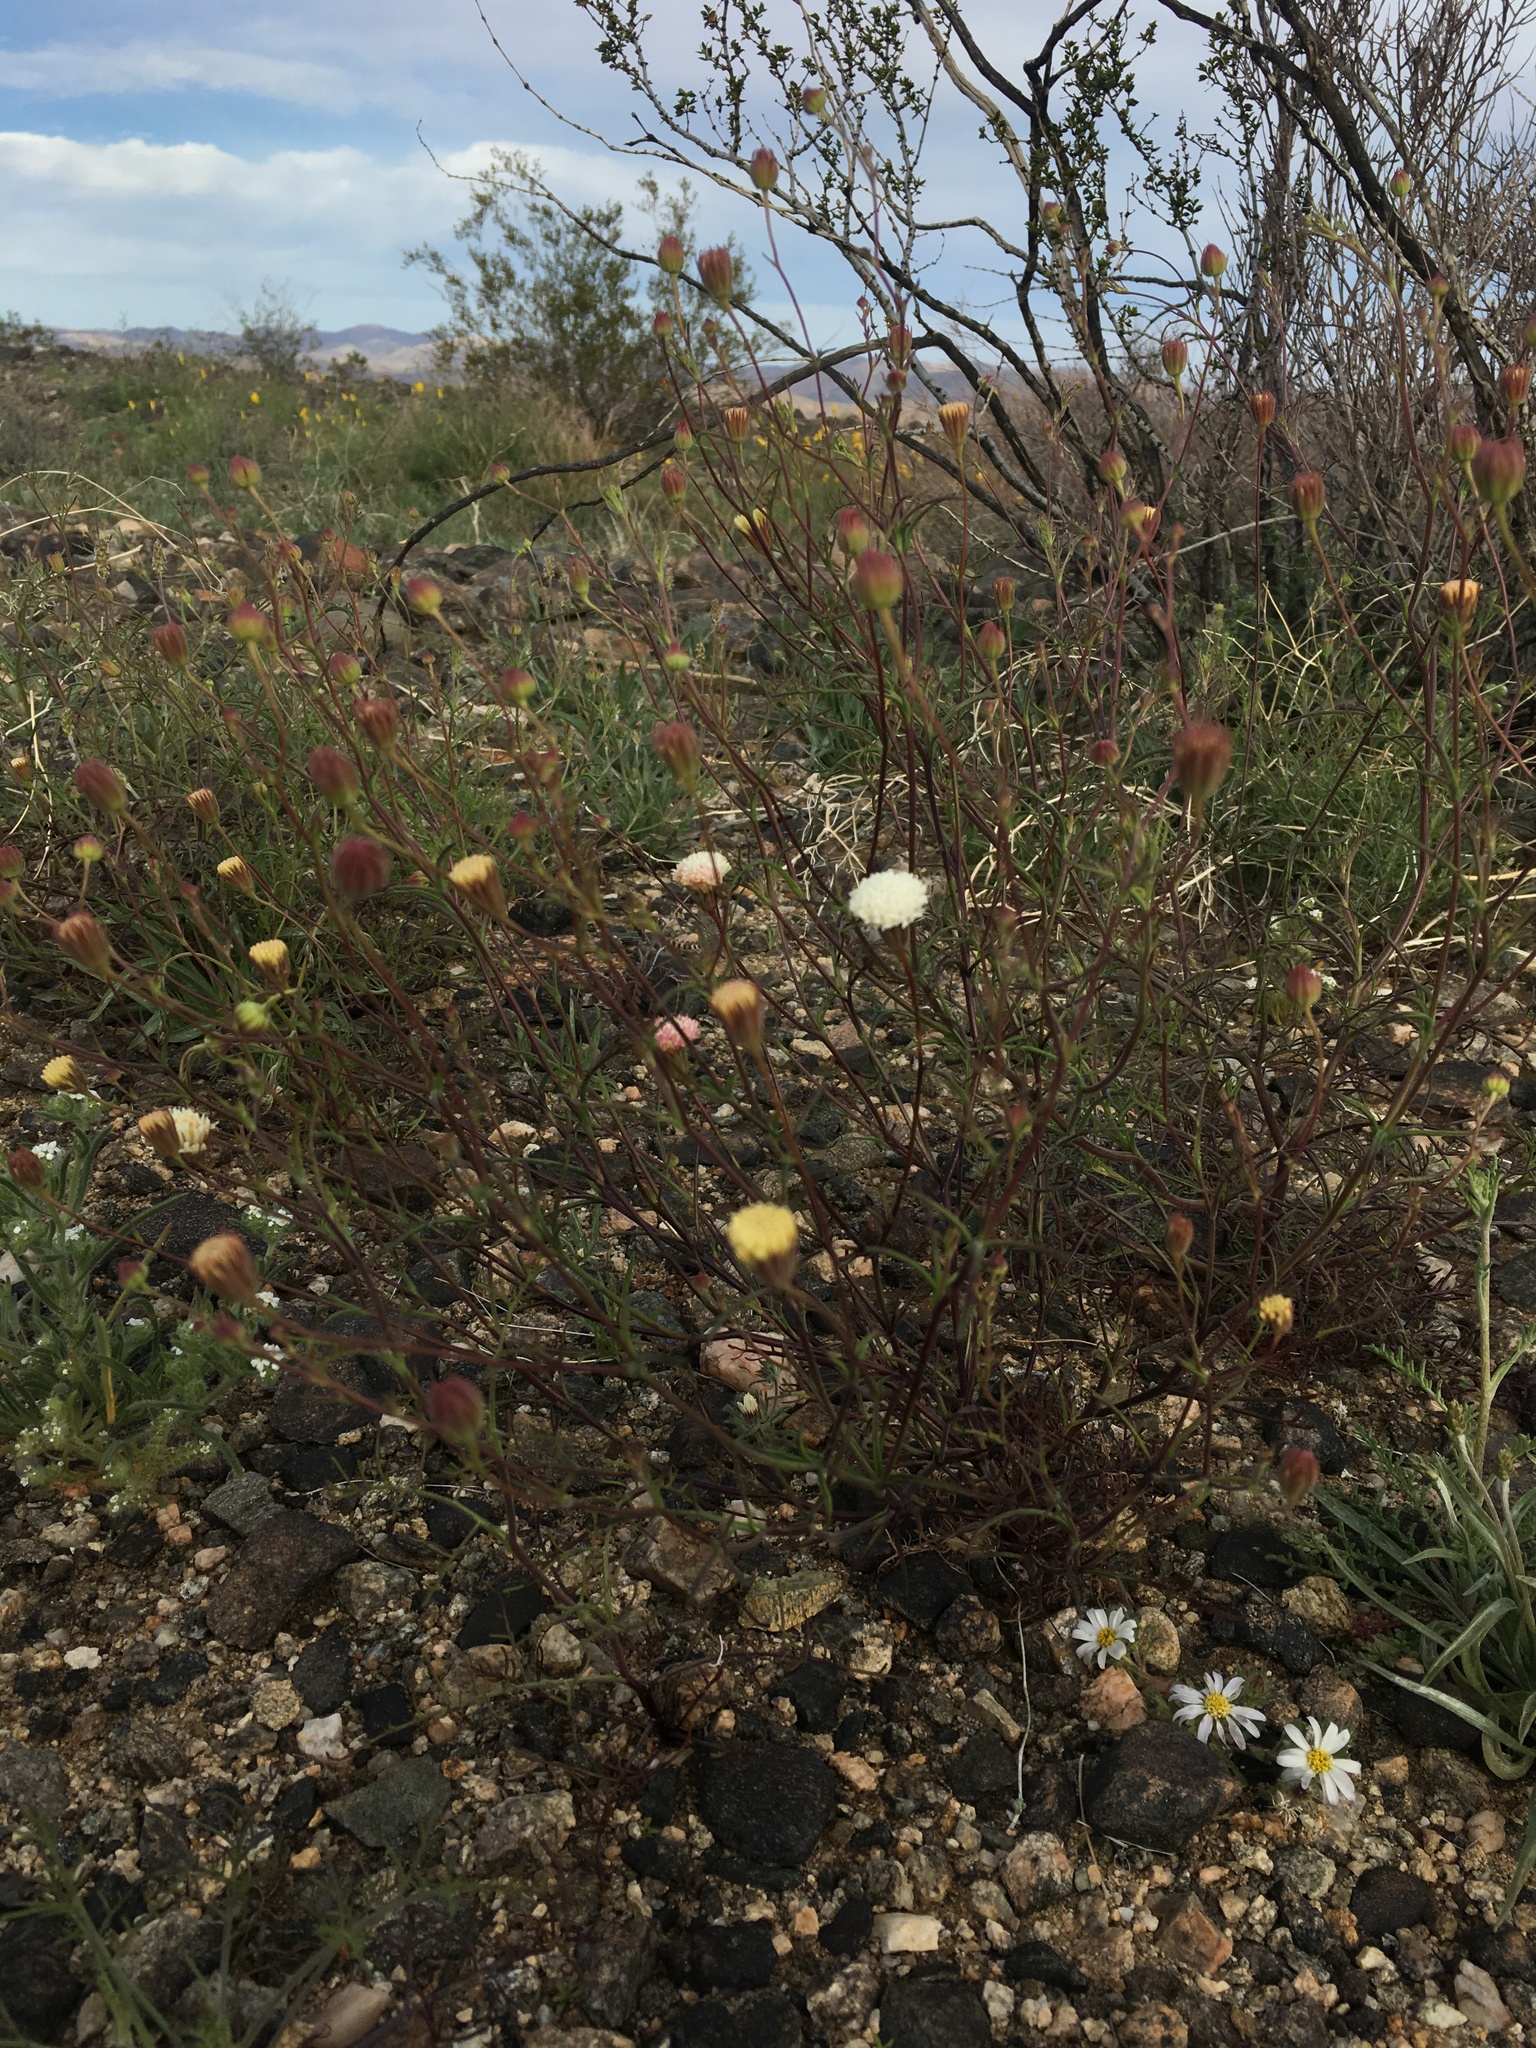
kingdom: Plantae
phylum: Tracheophyta
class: Magnoliopsida
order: Asterales
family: Asteraceae
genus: Chaenactis
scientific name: Chaenactis carphoclinia
